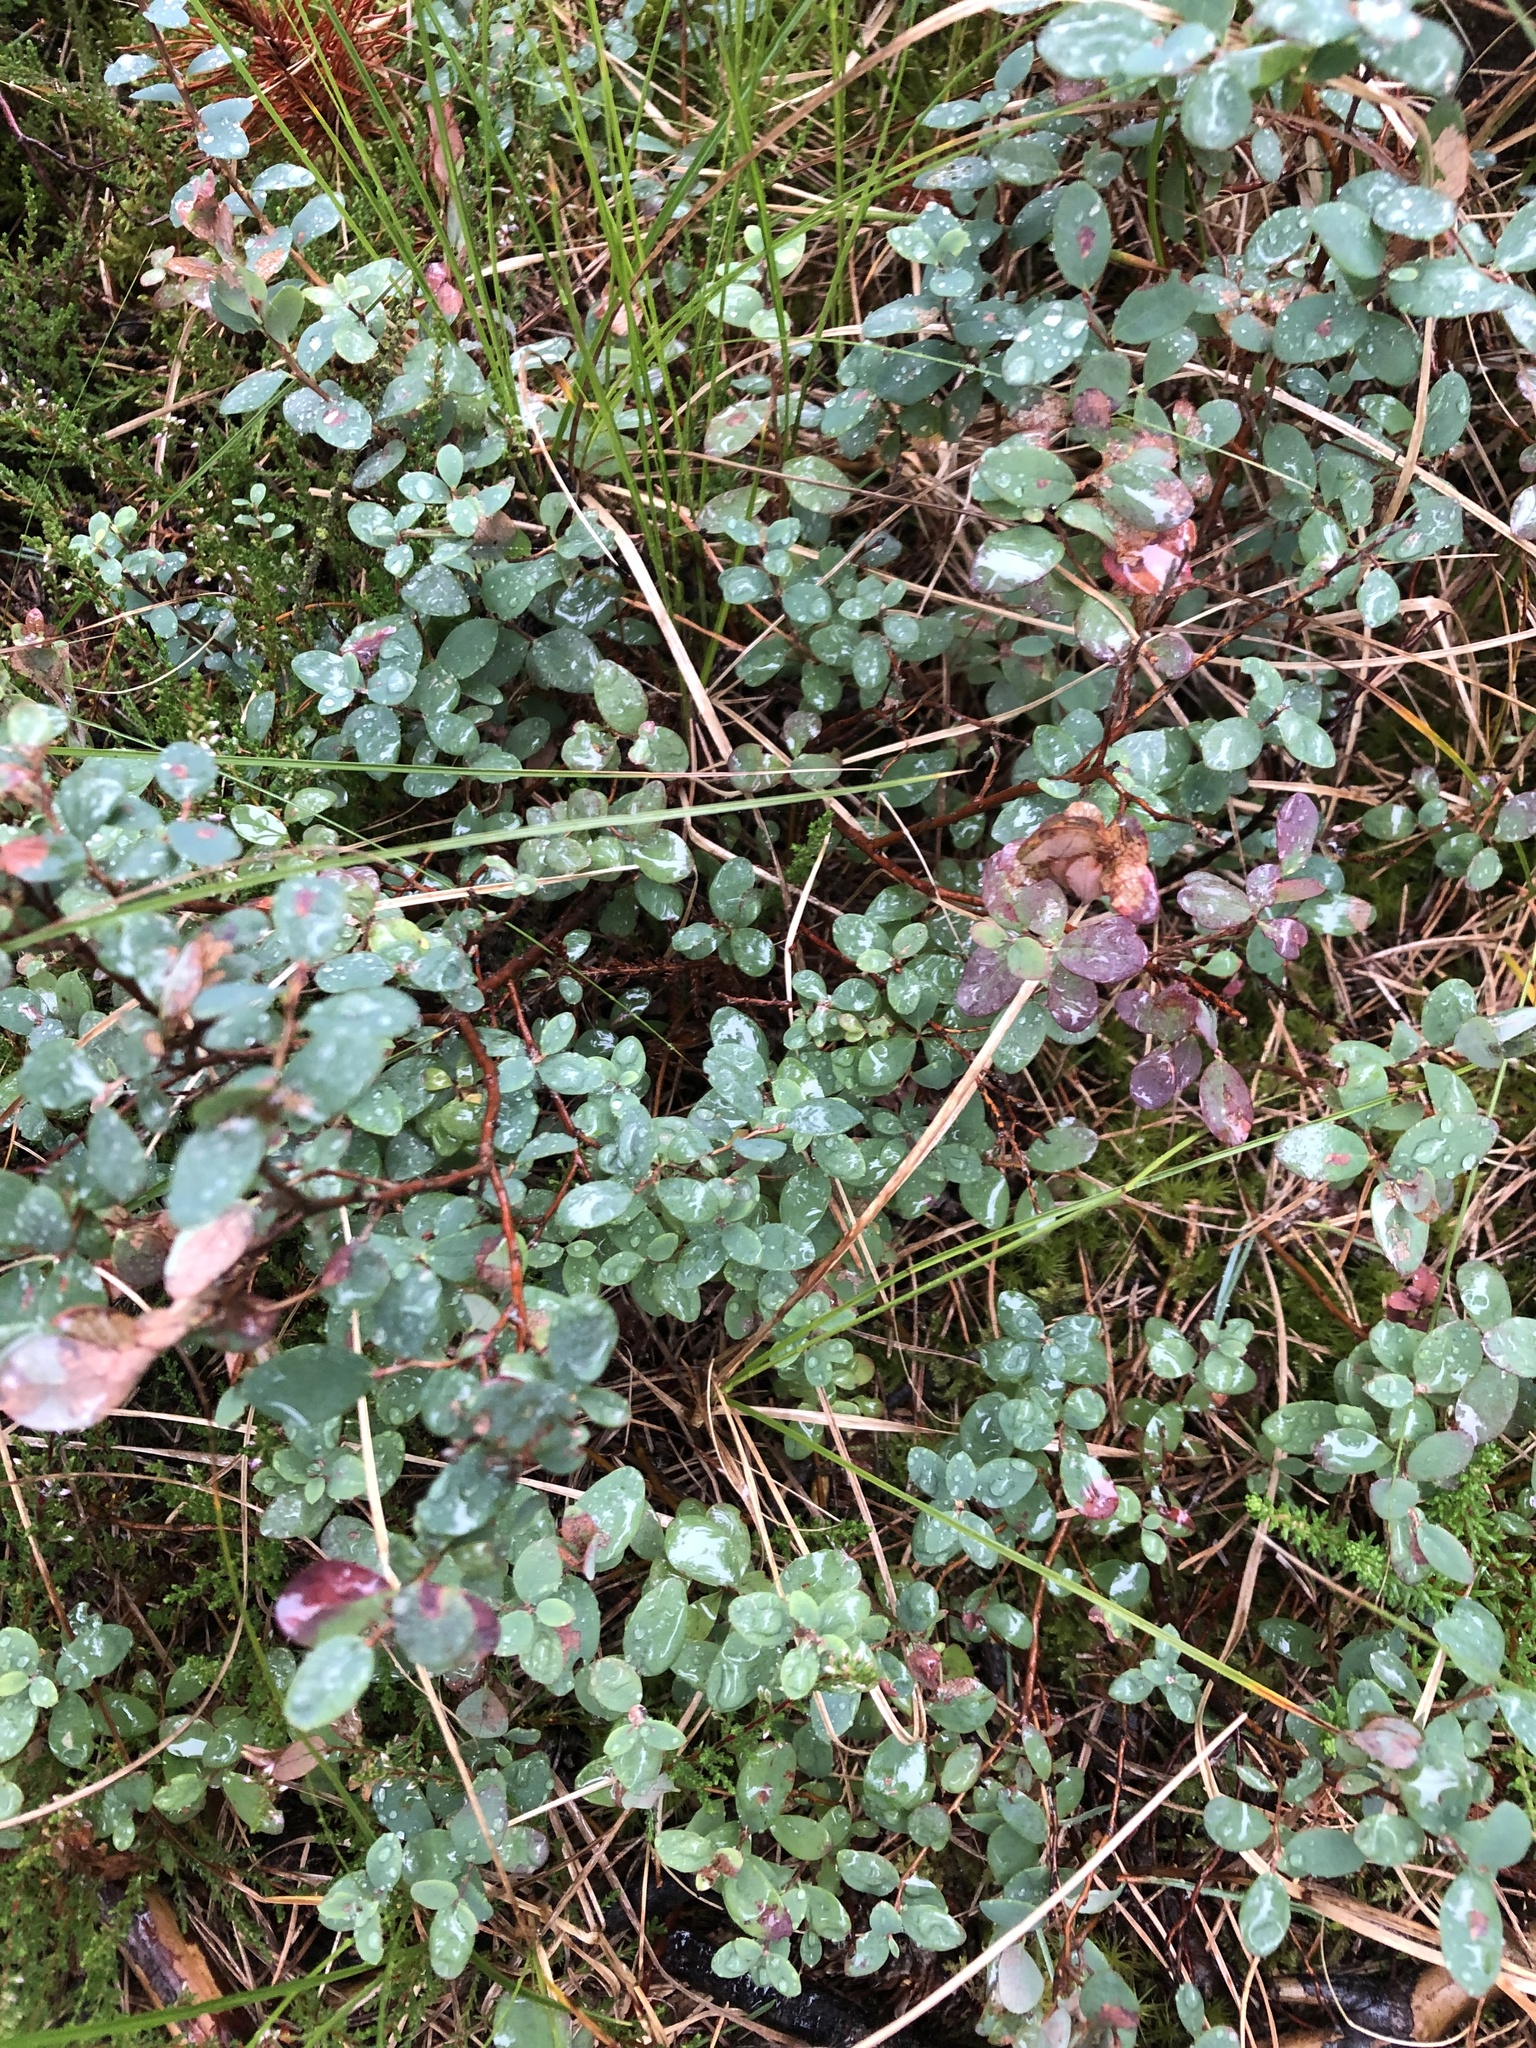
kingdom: Plantae
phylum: Tracheophyta
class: Magnoliopsida
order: Ericales
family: Ericaceae
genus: Vaccinium
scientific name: Vaccinium uliginosum
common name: Bog bilberry
